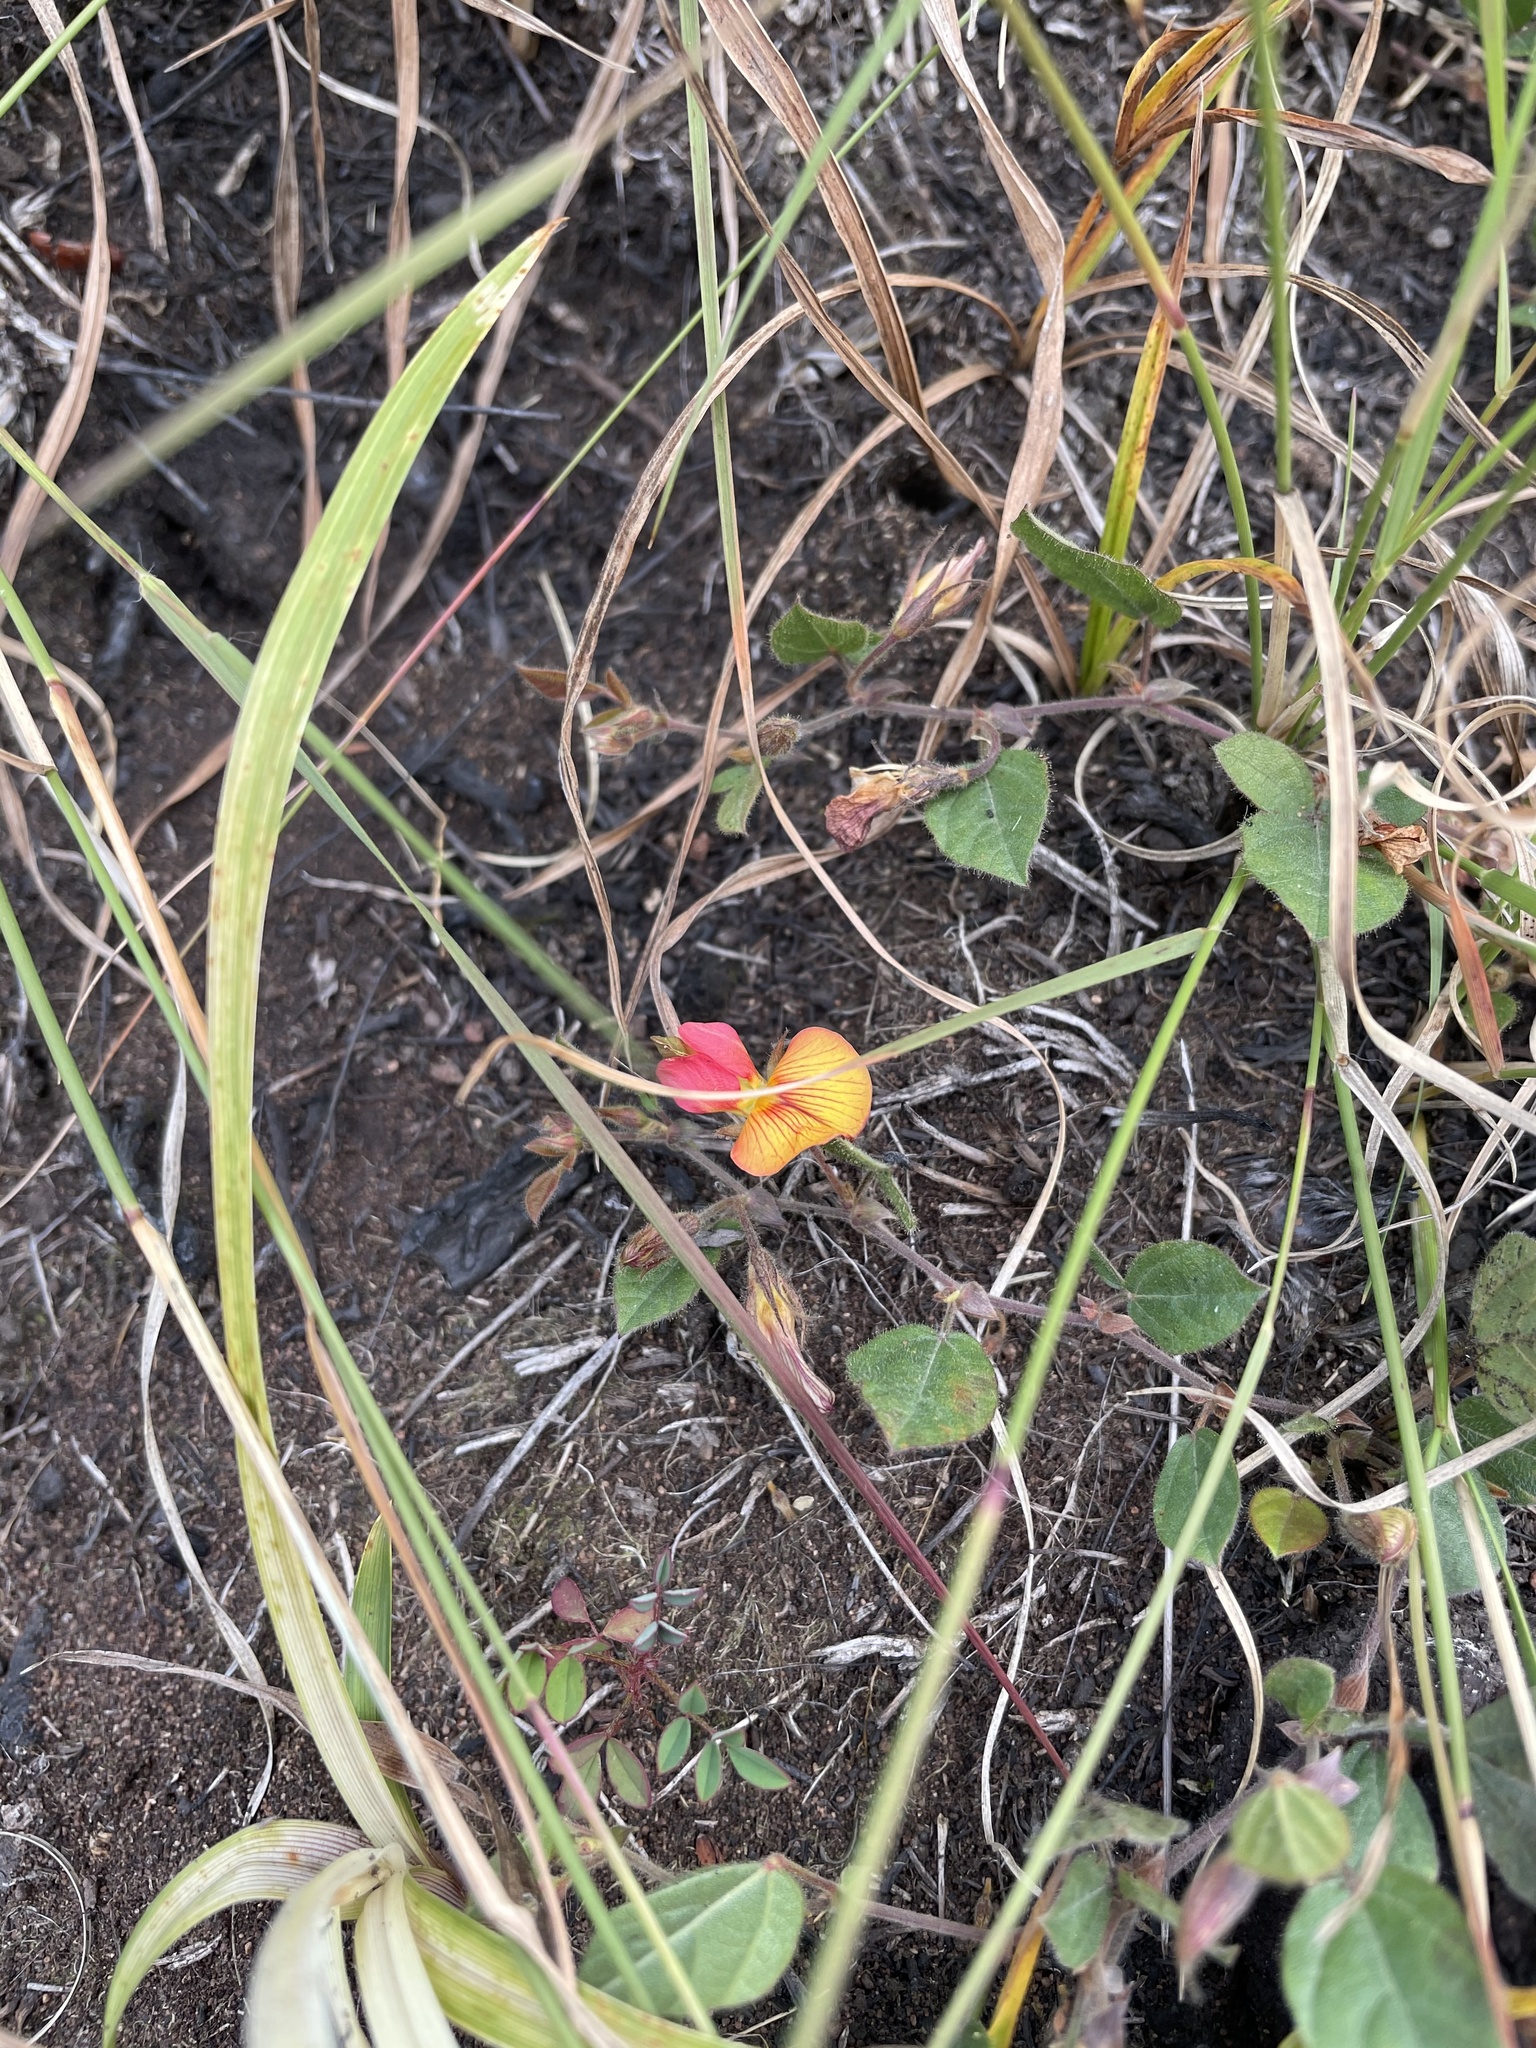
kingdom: Plantae
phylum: Tracheophyta
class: Magnoliopsida
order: Fabales
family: Fabaceae
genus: Rhynchosia
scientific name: Rhynchosia monophylla
